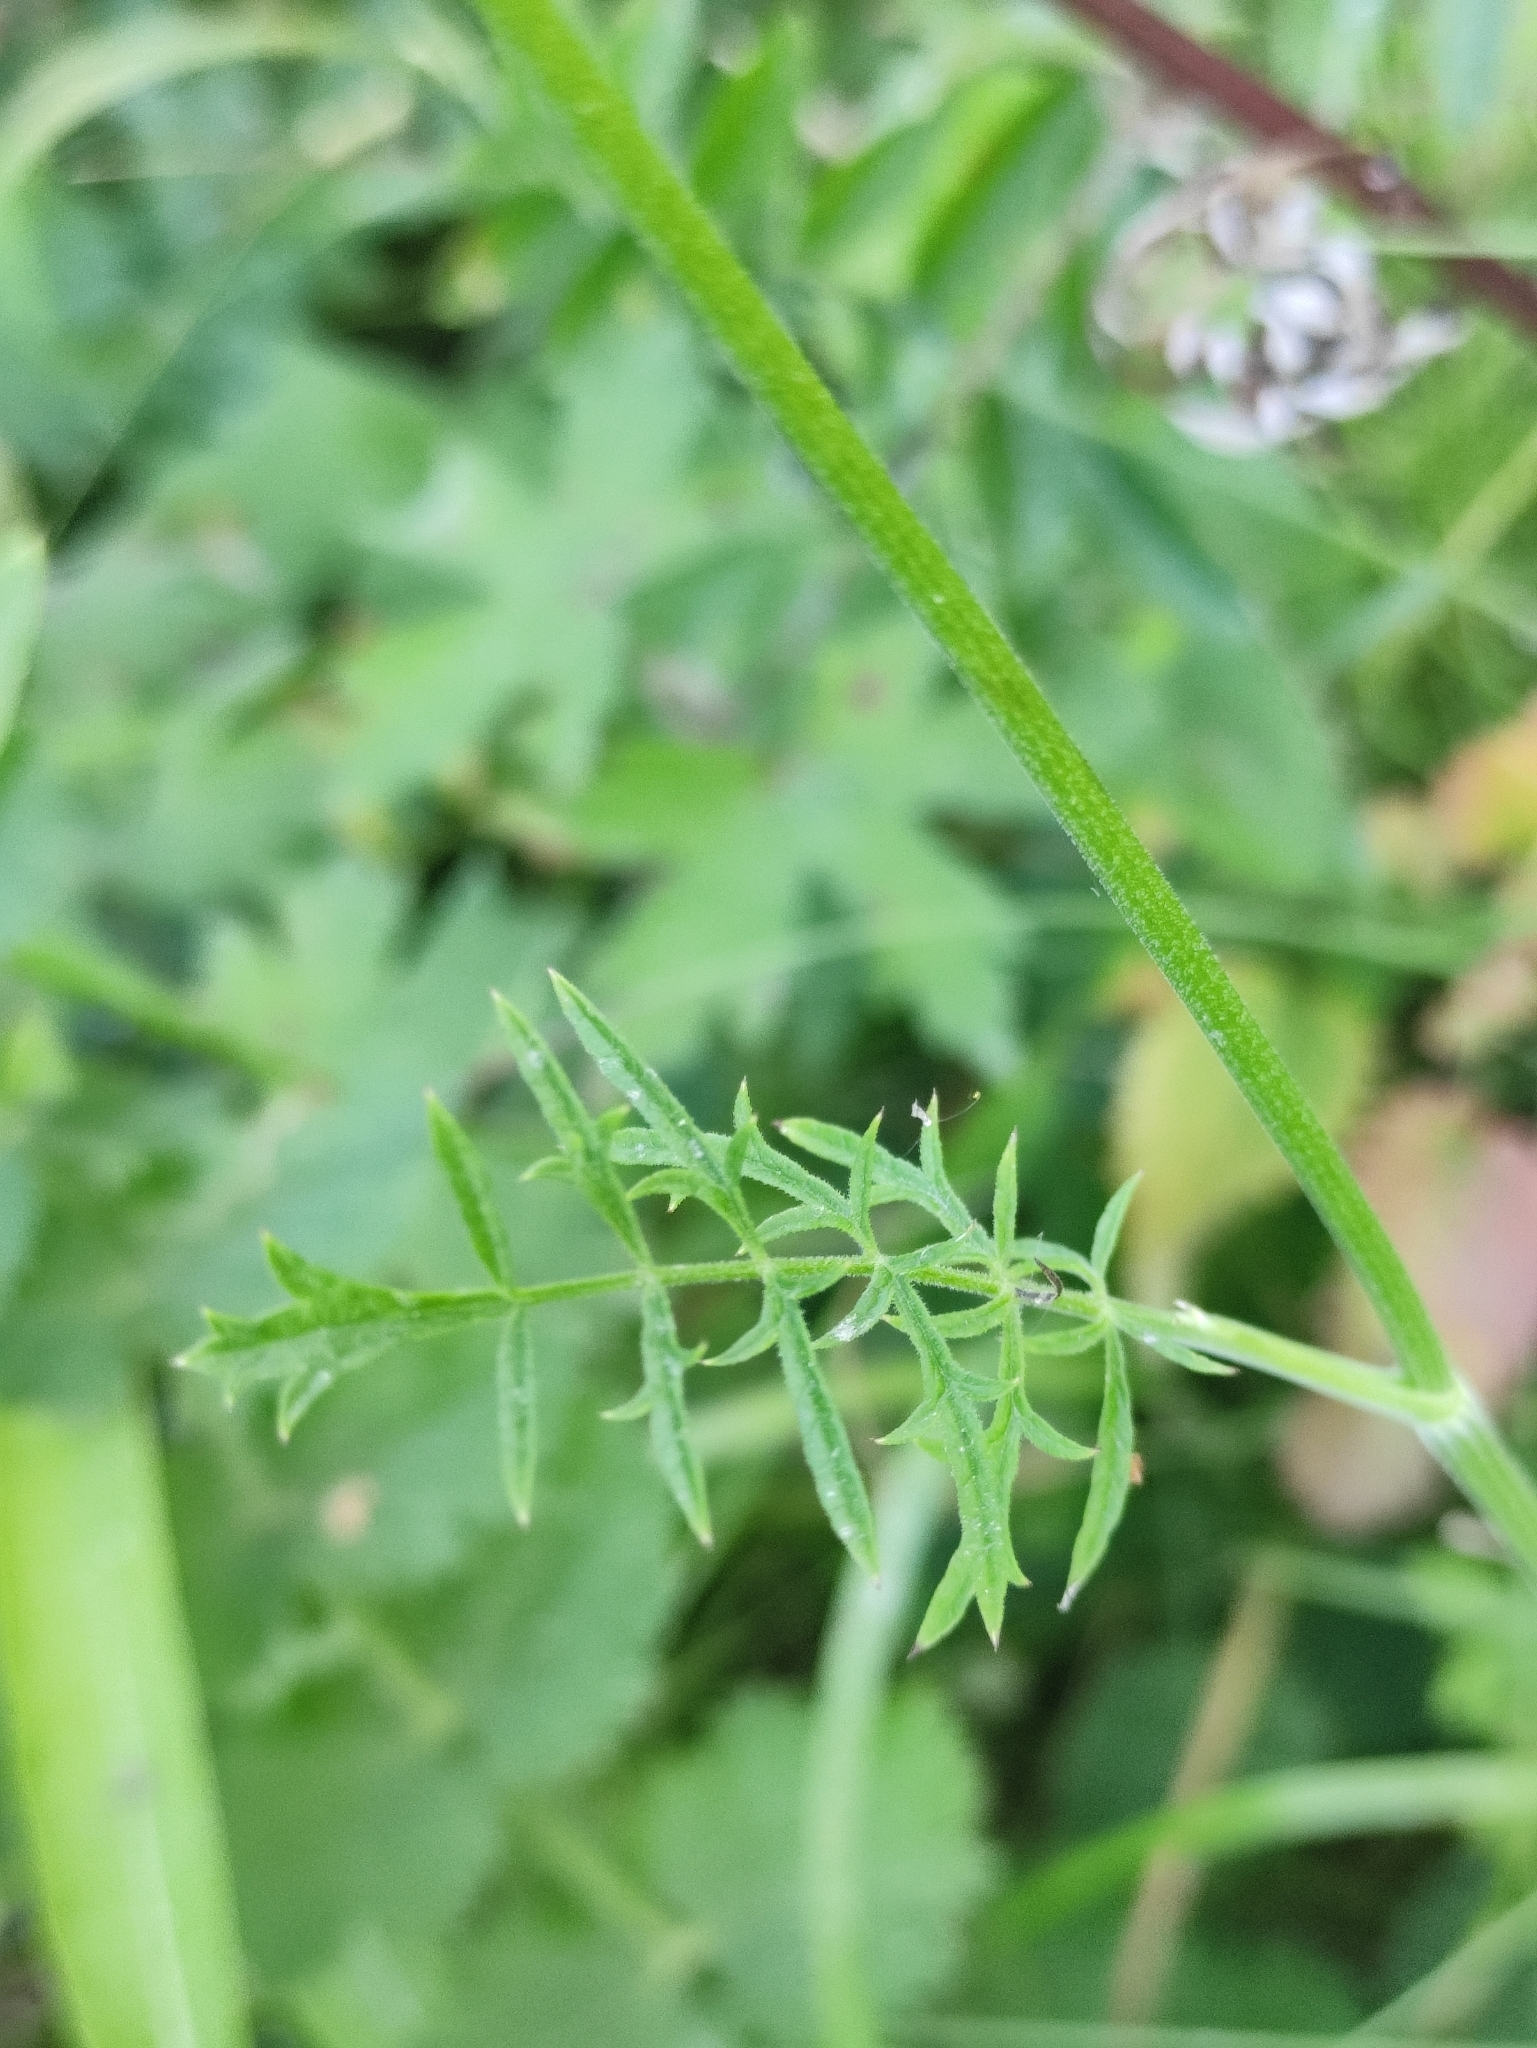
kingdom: Plantae
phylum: Tracheophyta
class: Magnoliopsida
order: Apiales
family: Apiaceae
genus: Pimpinella
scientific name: Pimpinella saxifraga
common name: Burnet-saxifrage
